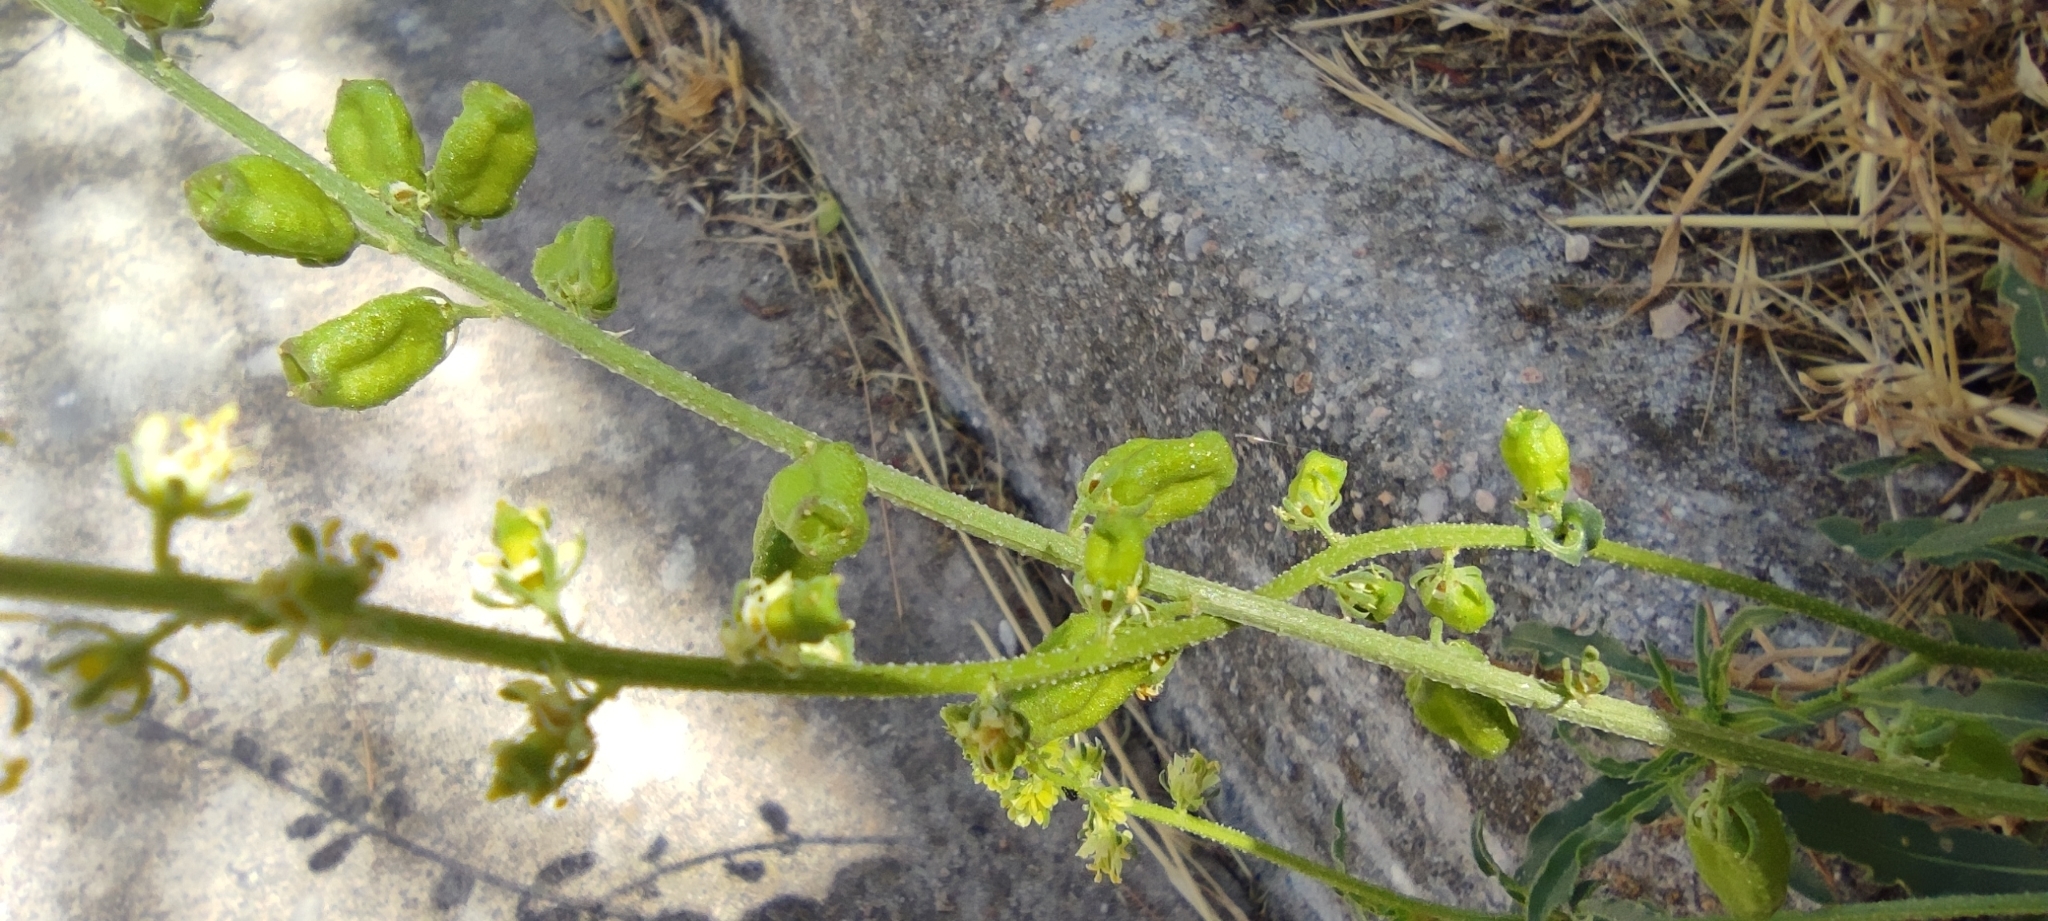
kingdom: Plantae
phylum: Tracheophyta
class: Magnoliopsida
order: Brassicales
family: Resedaceae
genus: Reseda
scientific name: Reseda lutea
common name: Wild mignonette
